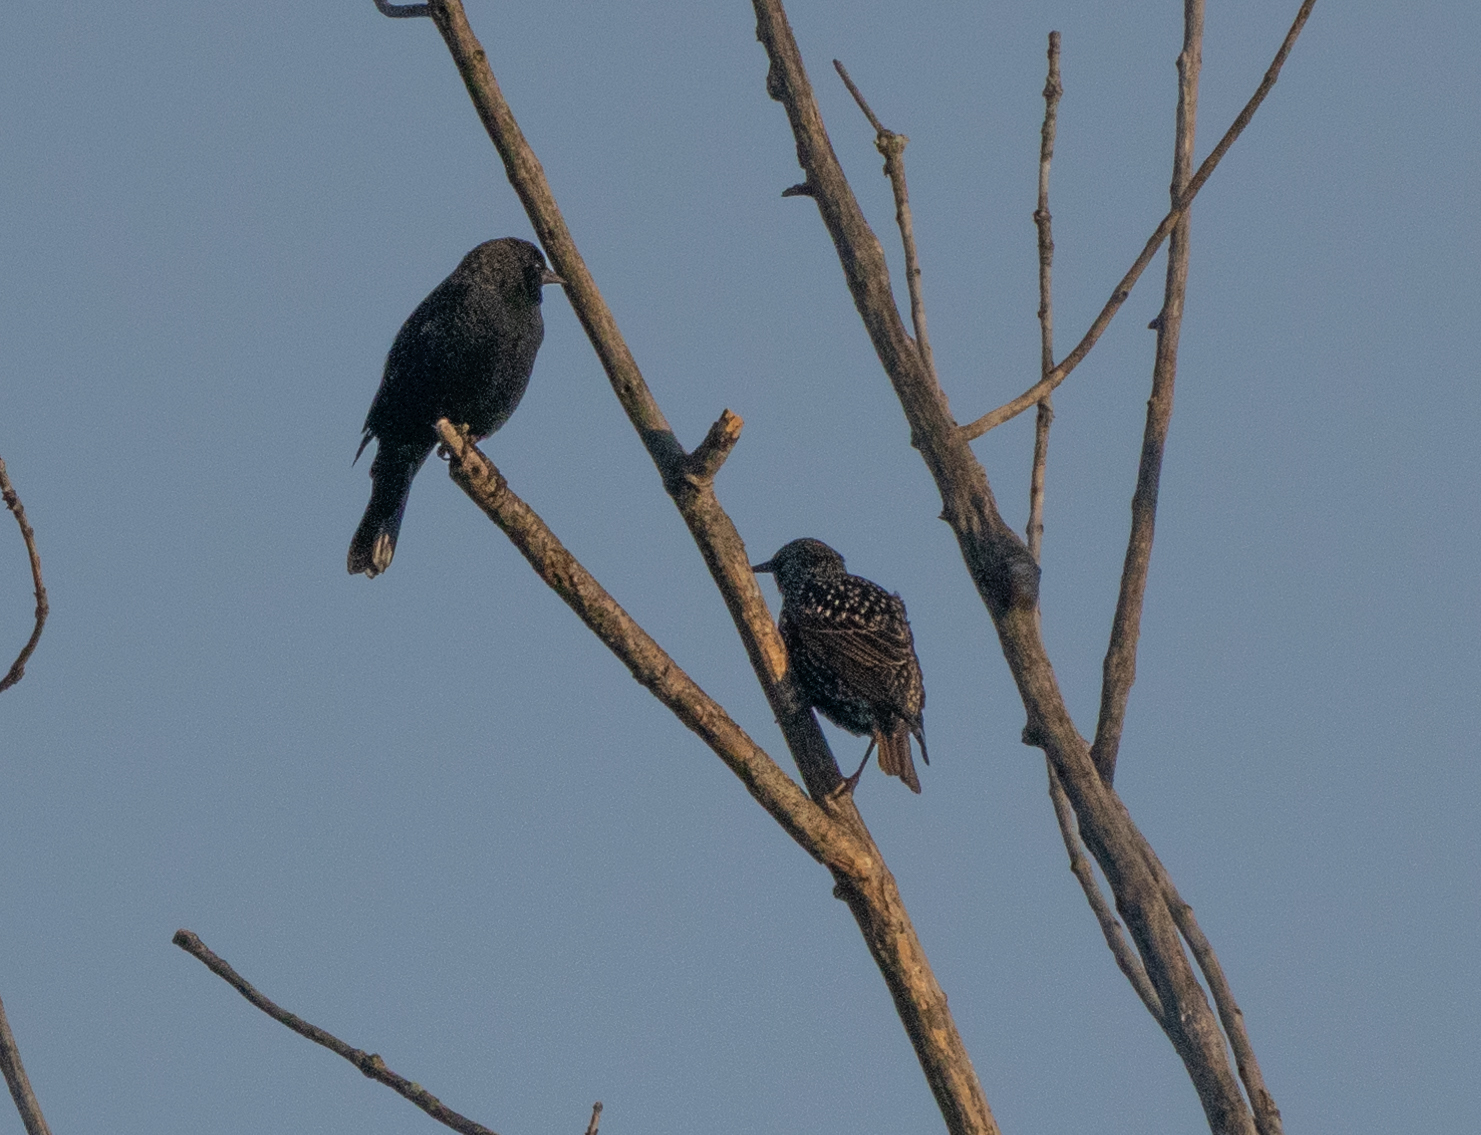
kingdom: Animalia
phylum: Chordata
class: Aves
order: Passeriformes
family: Sturnidae
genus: Sturnus
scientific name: Sturnus vulgaris
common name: Common starling
